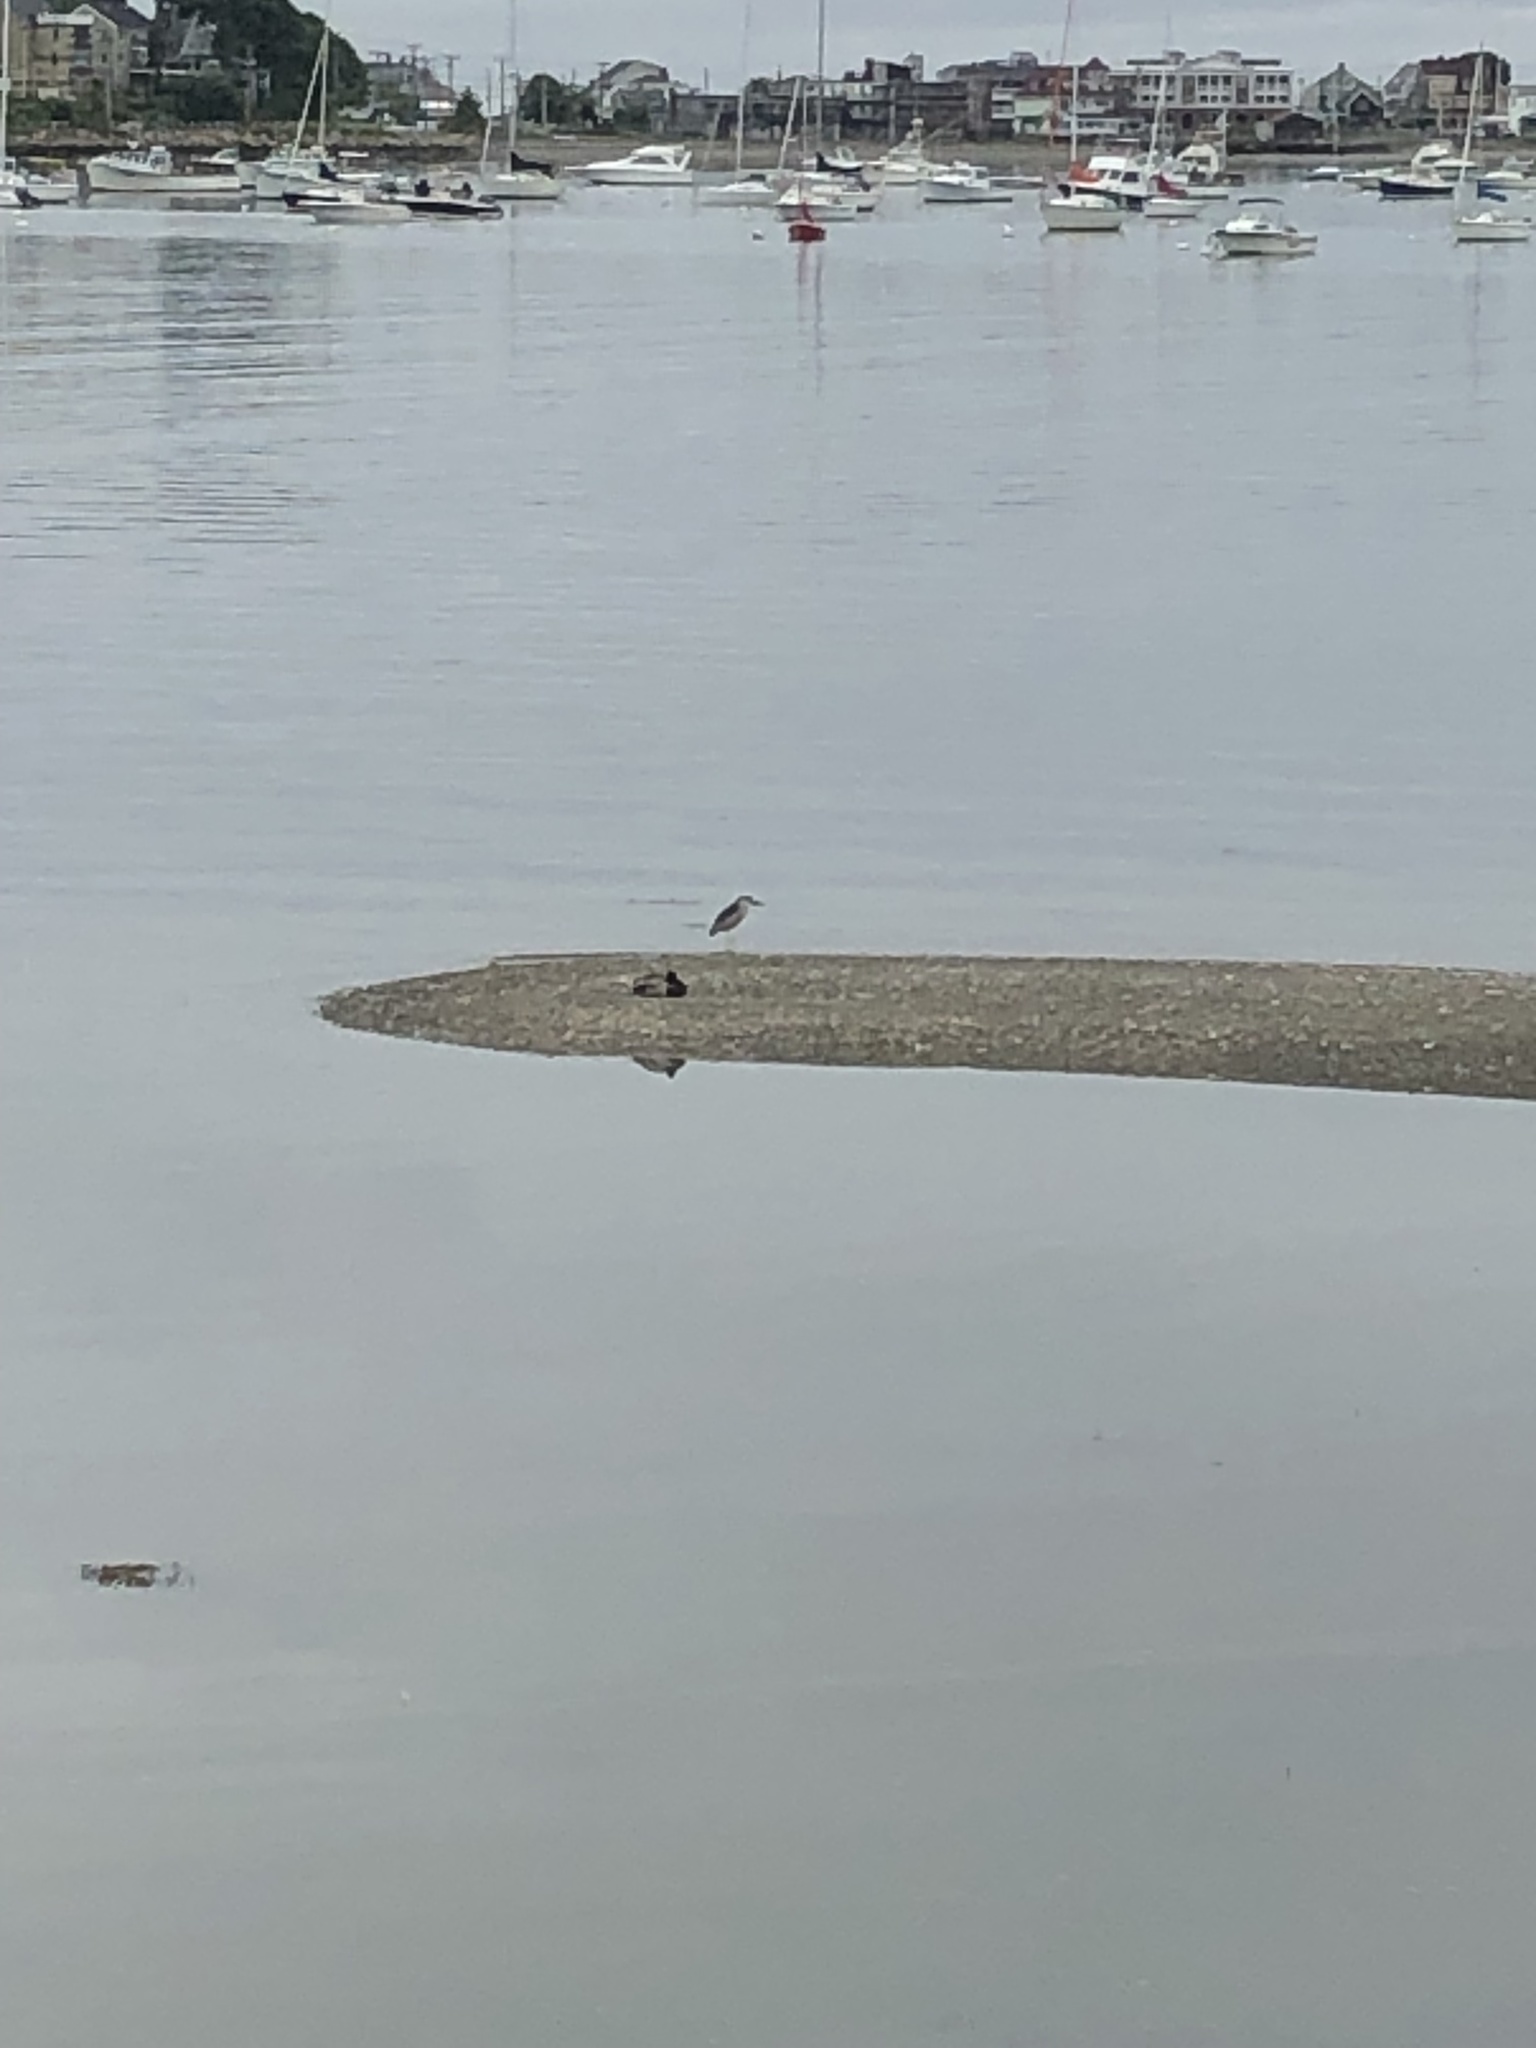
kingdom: Animalia
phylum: Chordata
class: Aves
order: Pelecaniformes
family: Ardeidae
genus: Nycticorax
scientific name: Nycticorax nycticorax
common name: Black-crowned night heron
